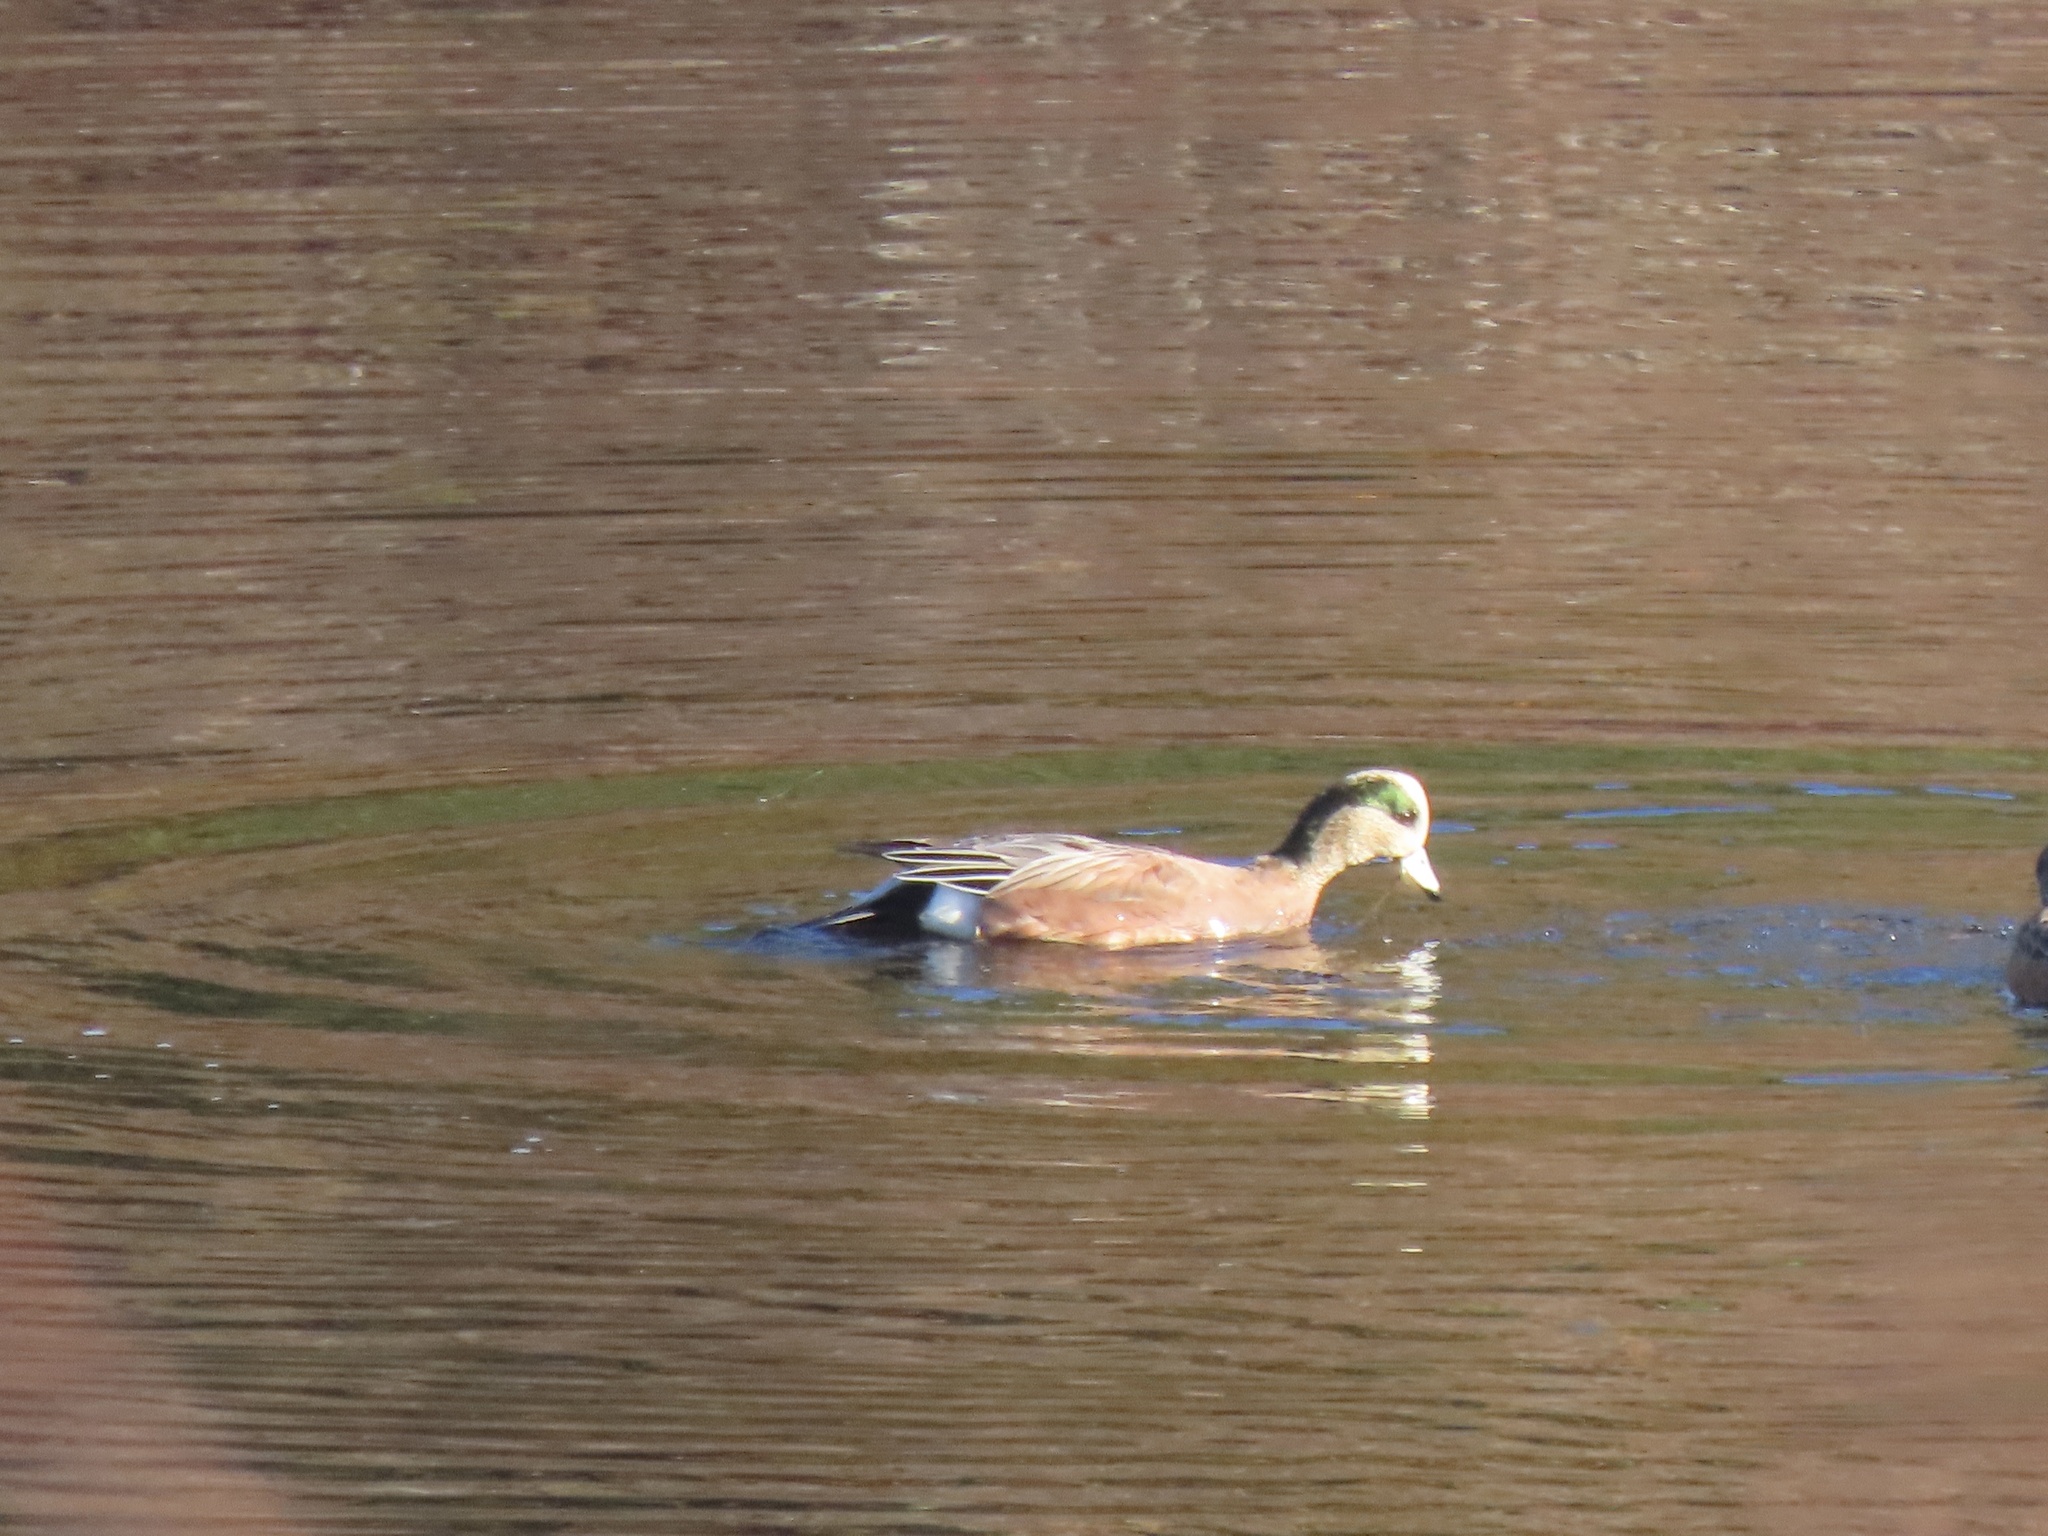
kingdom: Animalia
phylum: Chordata
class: Aves
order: Anseriformes
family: Anatidae
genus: Mareca
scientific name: Mareca americana
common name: American wigeon
